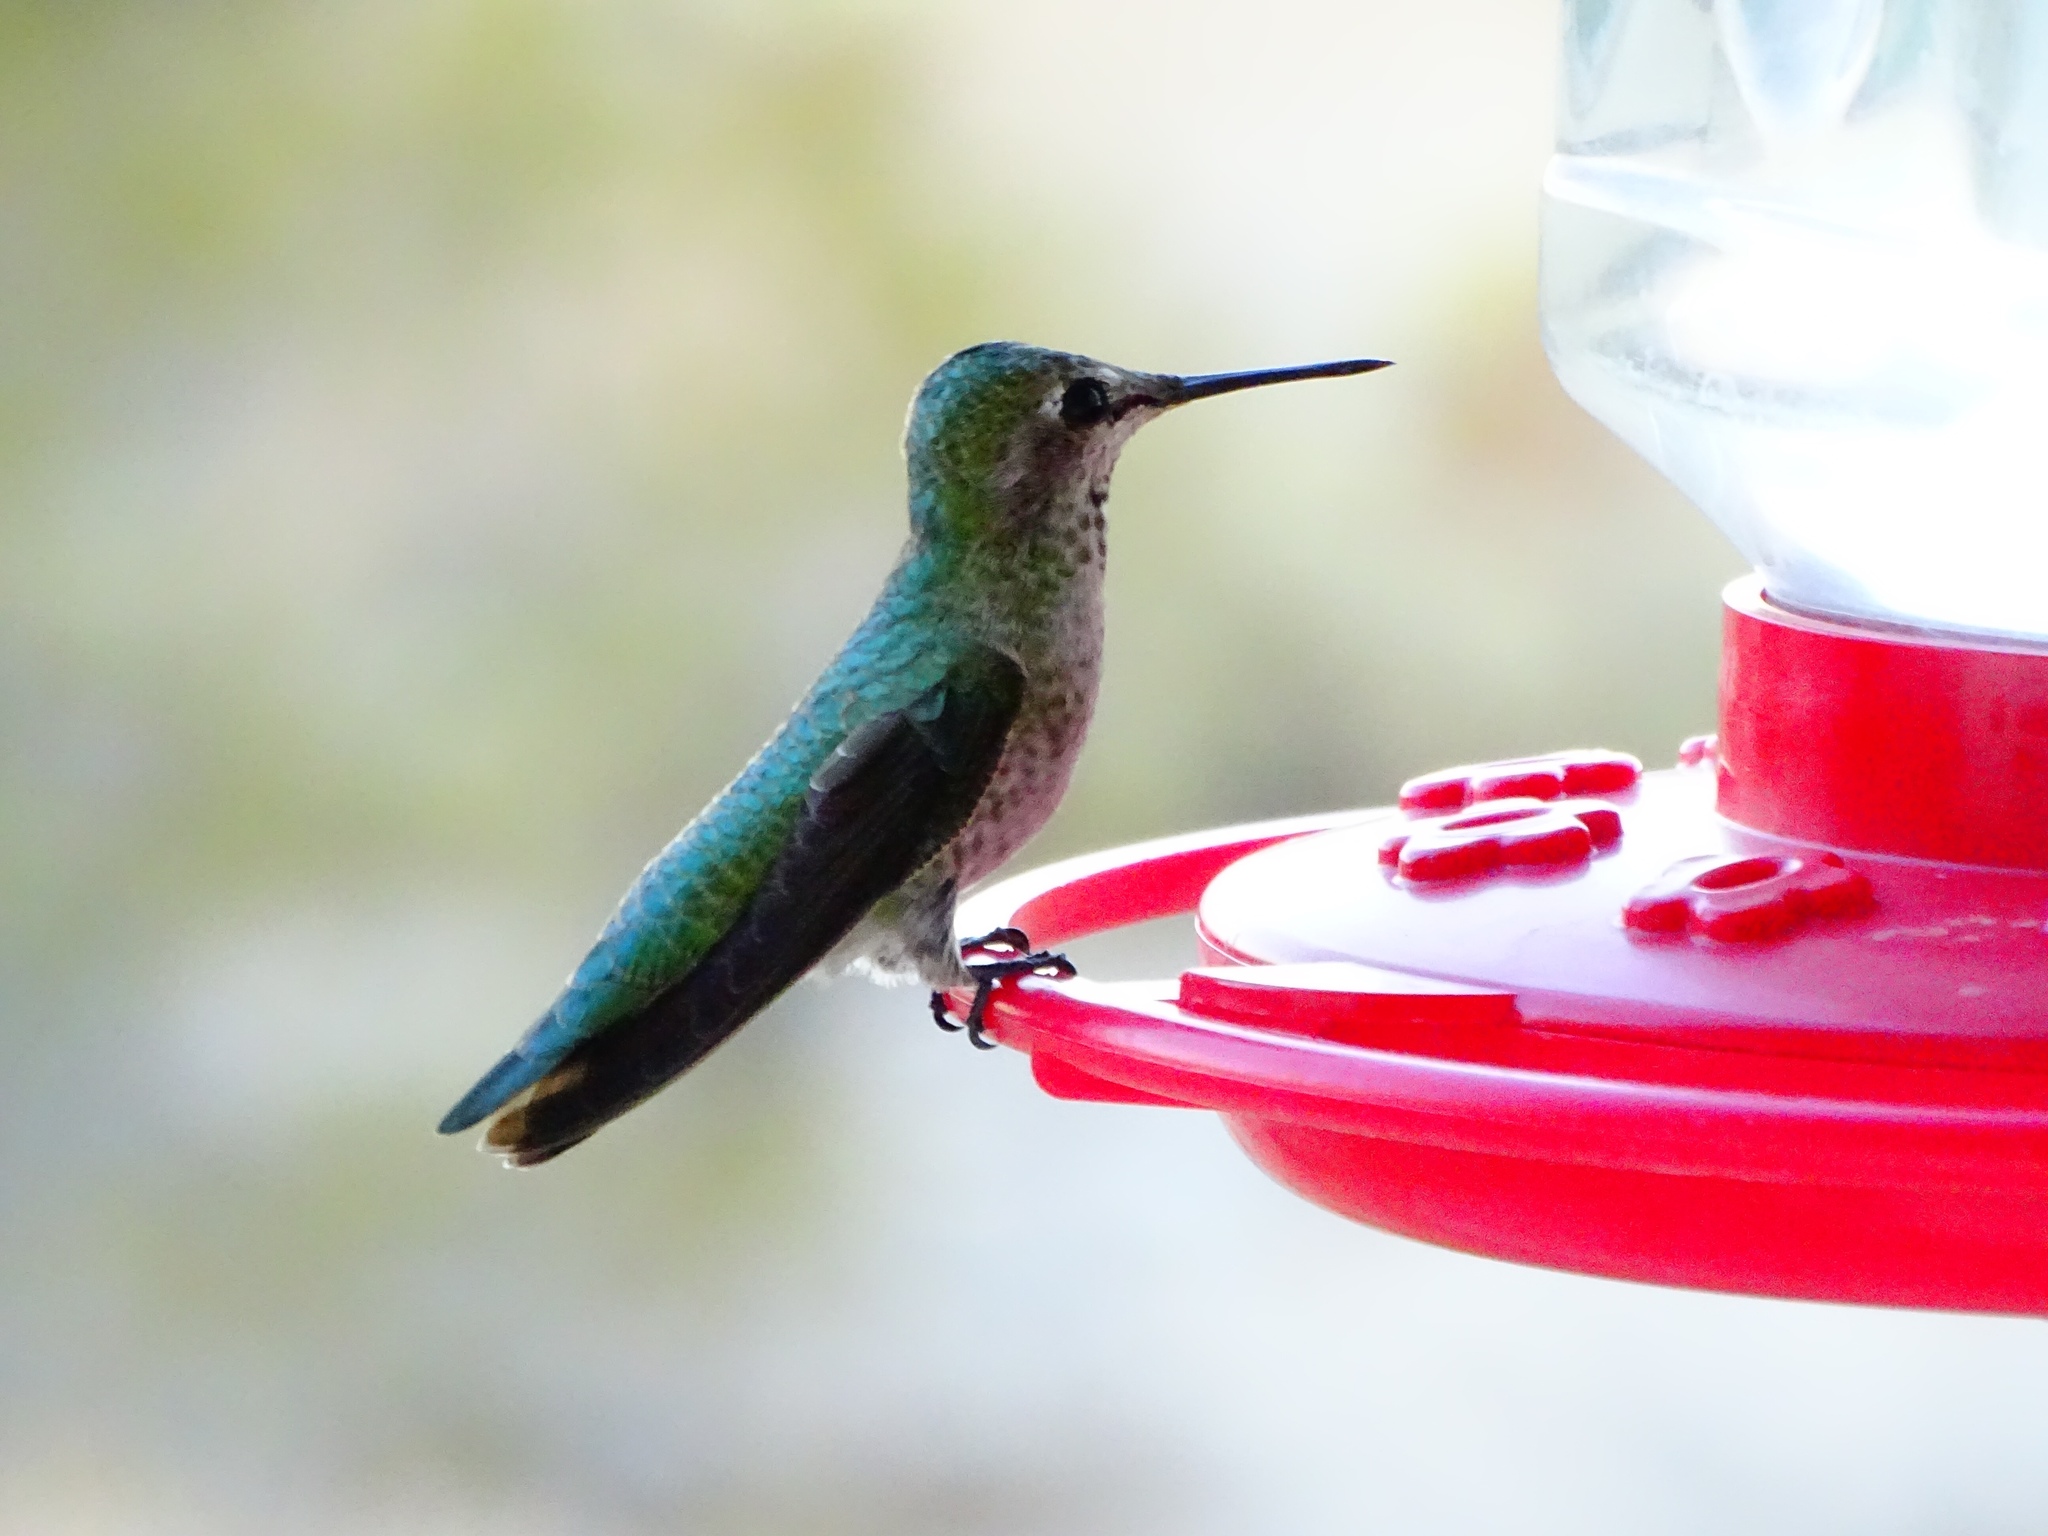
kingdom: Animalia
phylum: Chordata
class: Aves
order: Apodiformes
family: Trochilidae
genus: Calypte
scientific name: Calypte anna
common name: Anna's hummingbird
